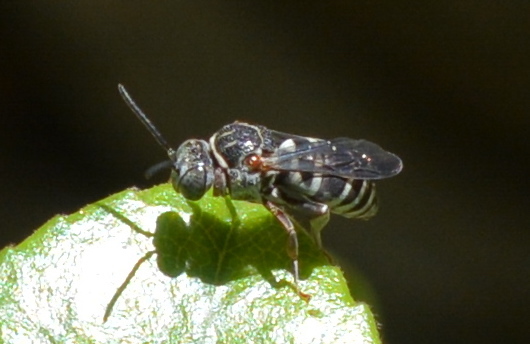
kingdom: Animalia
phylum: Arthropoda
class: Insecta
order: Hymenoptera
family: Apidae
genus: Epeolus
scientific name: Epeolus lectoides
